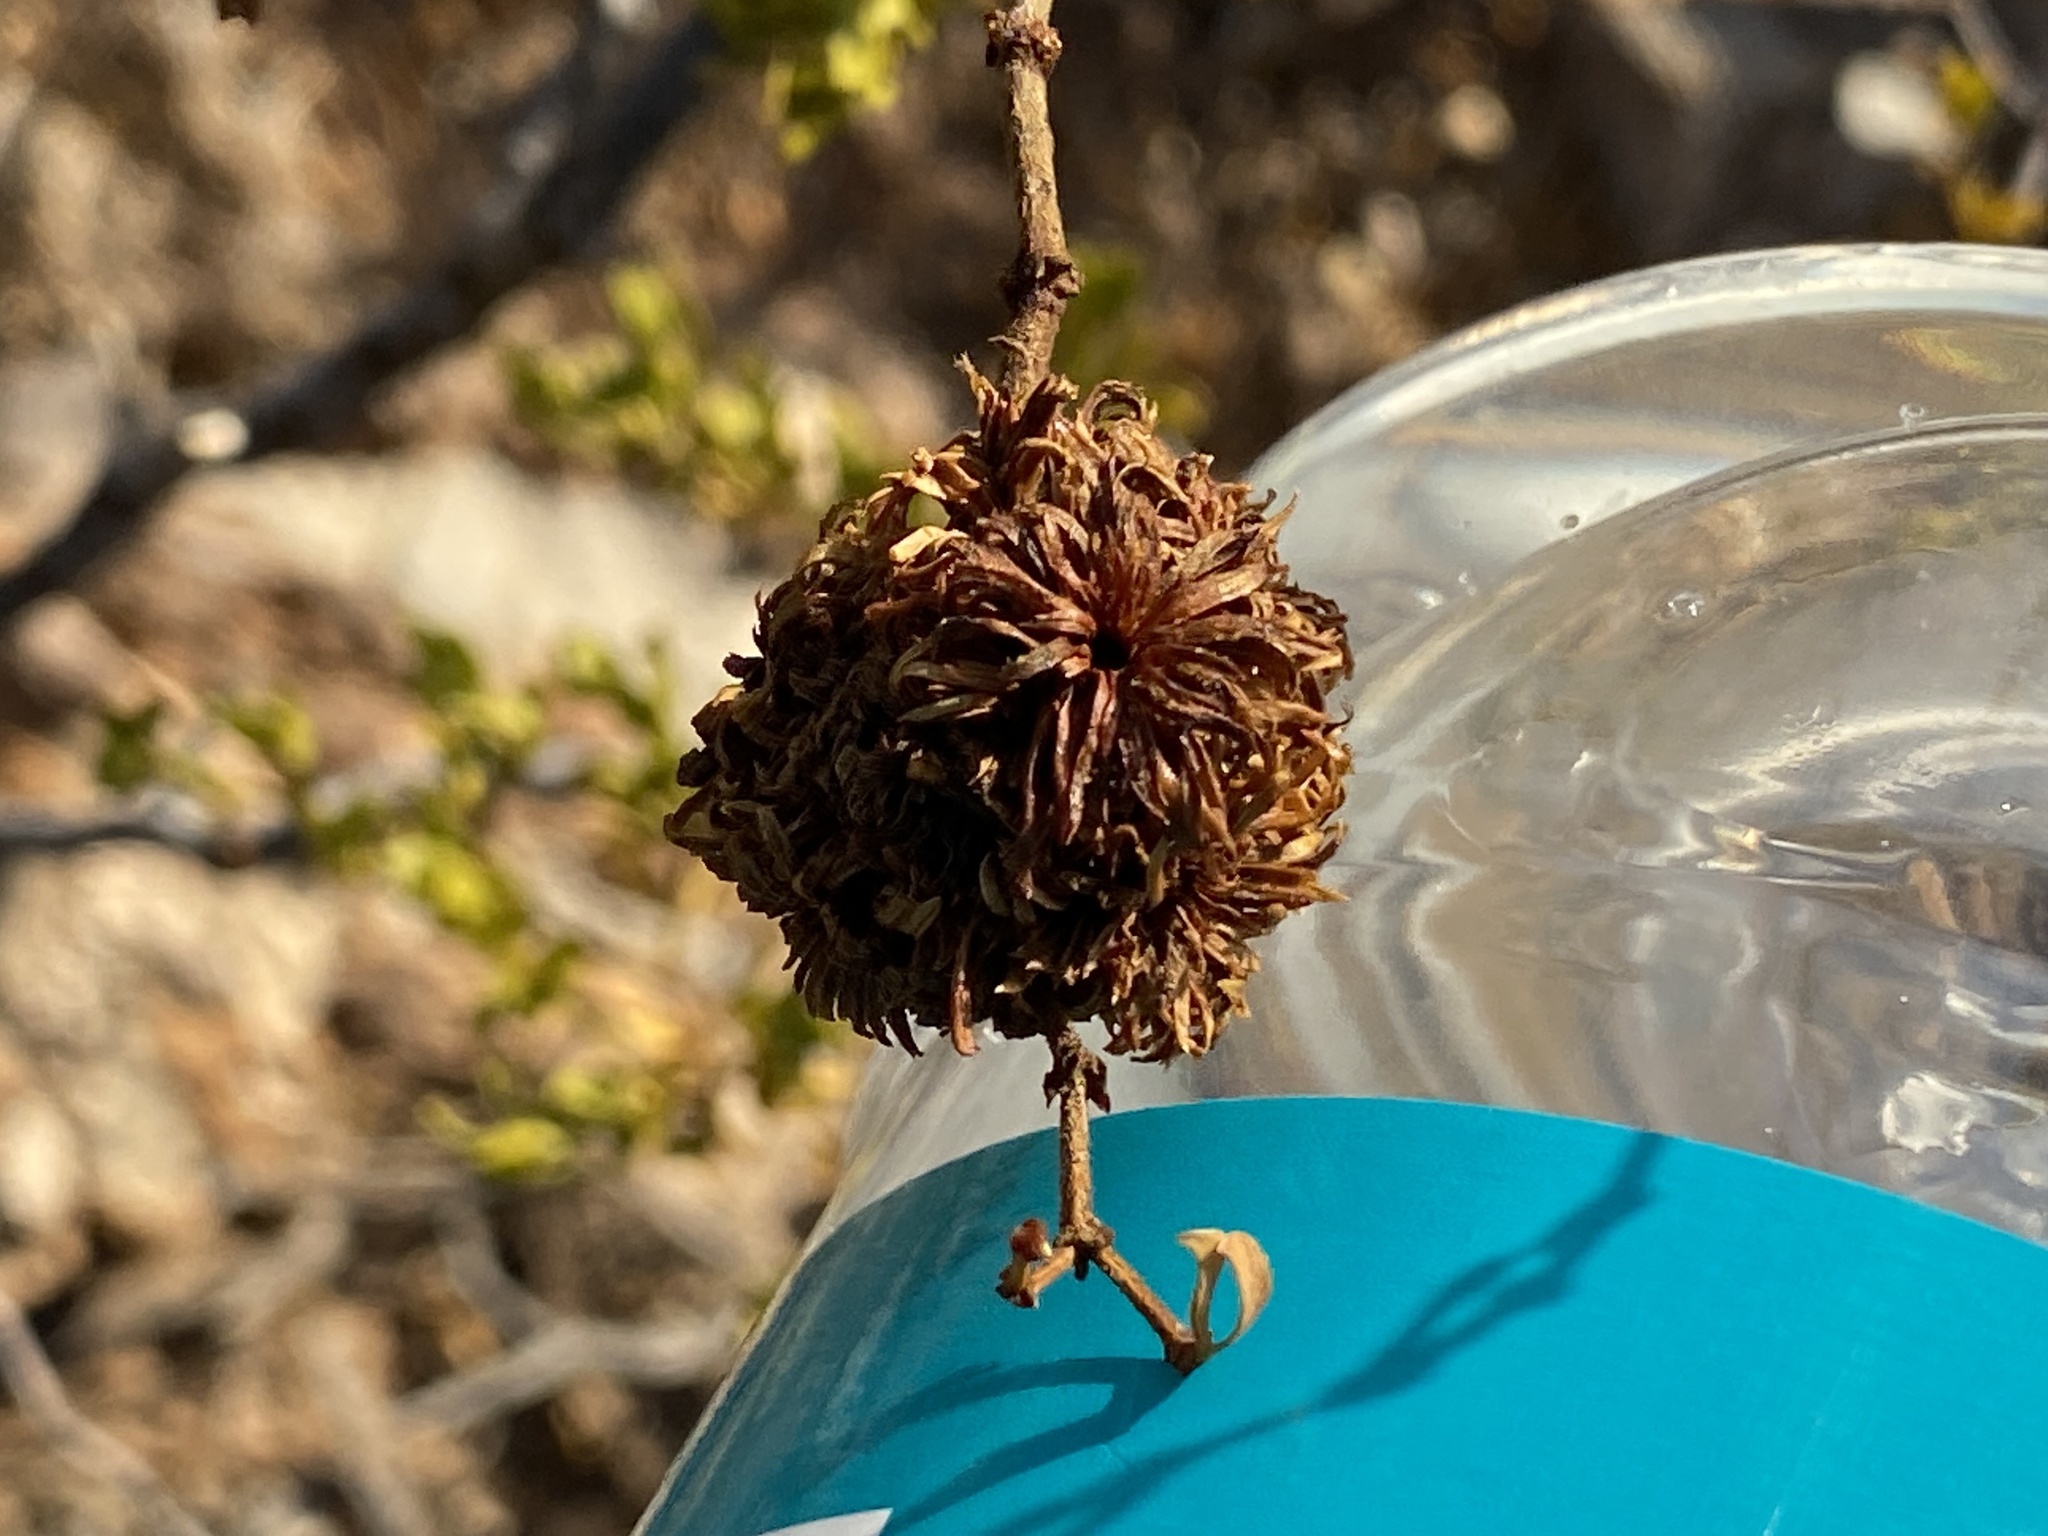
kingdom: Animalia
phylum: Arthropoda
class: Insecta
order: Diptera
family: Cecidomyiidae
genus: Asphondylia
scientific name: Asphondylia auripila
